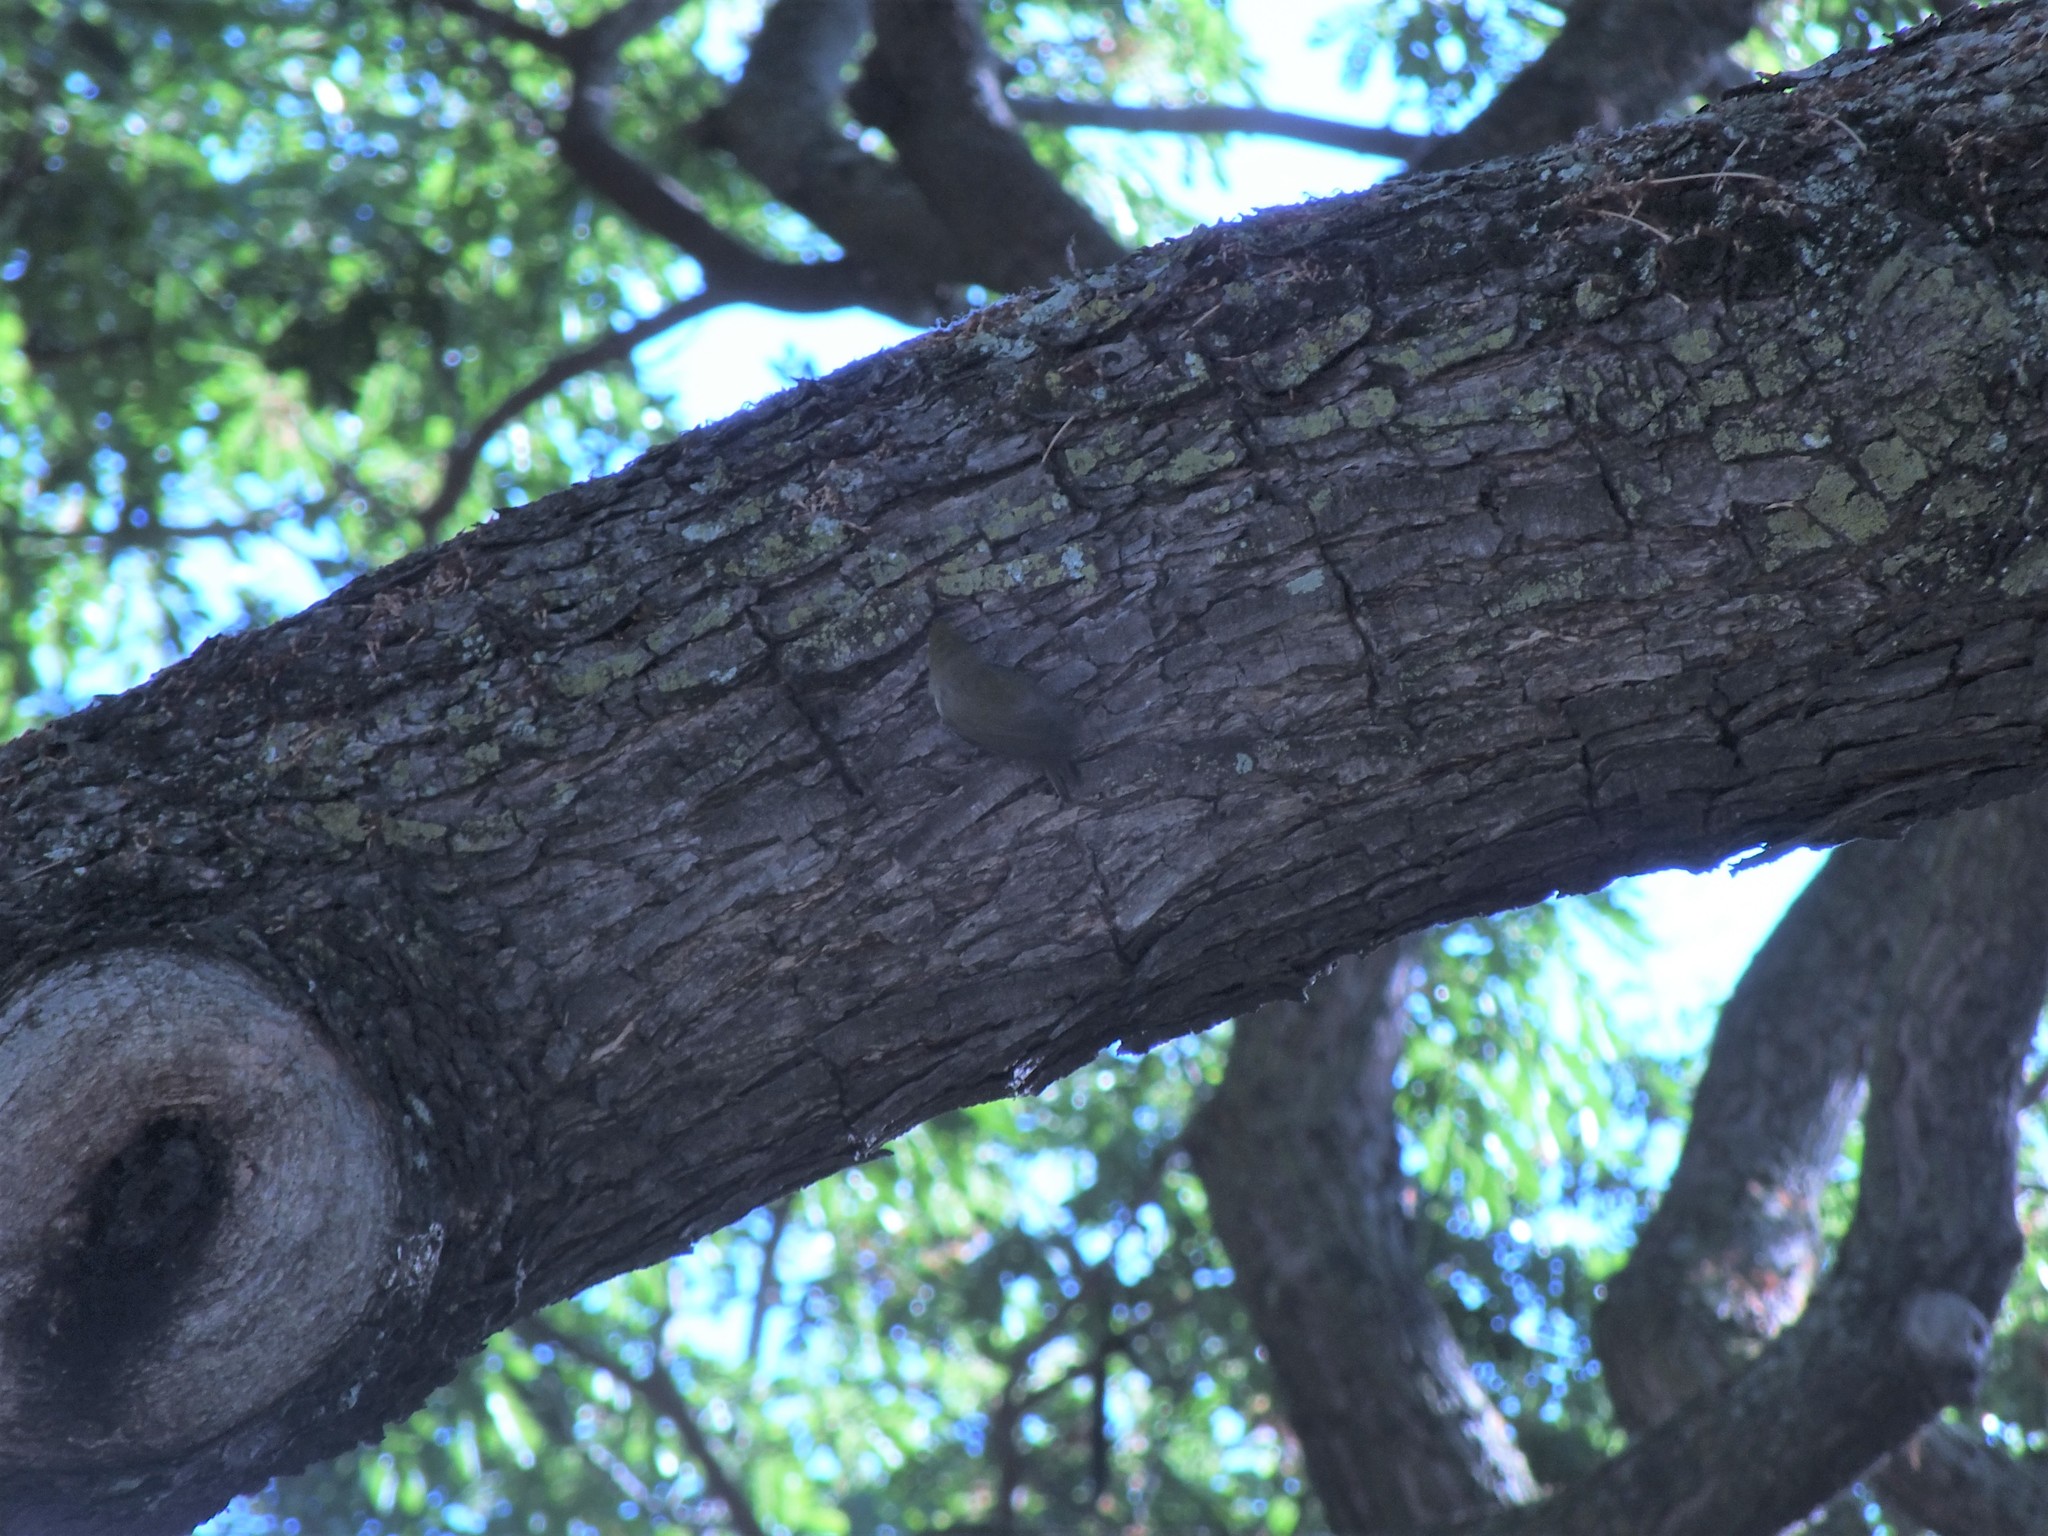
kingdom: Animalia
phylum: Chordata
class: Aves
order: Passeriformes
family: Zosteropidae
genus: Zosterops
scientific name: Zosterops japonicus
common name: Japanese white-eye
